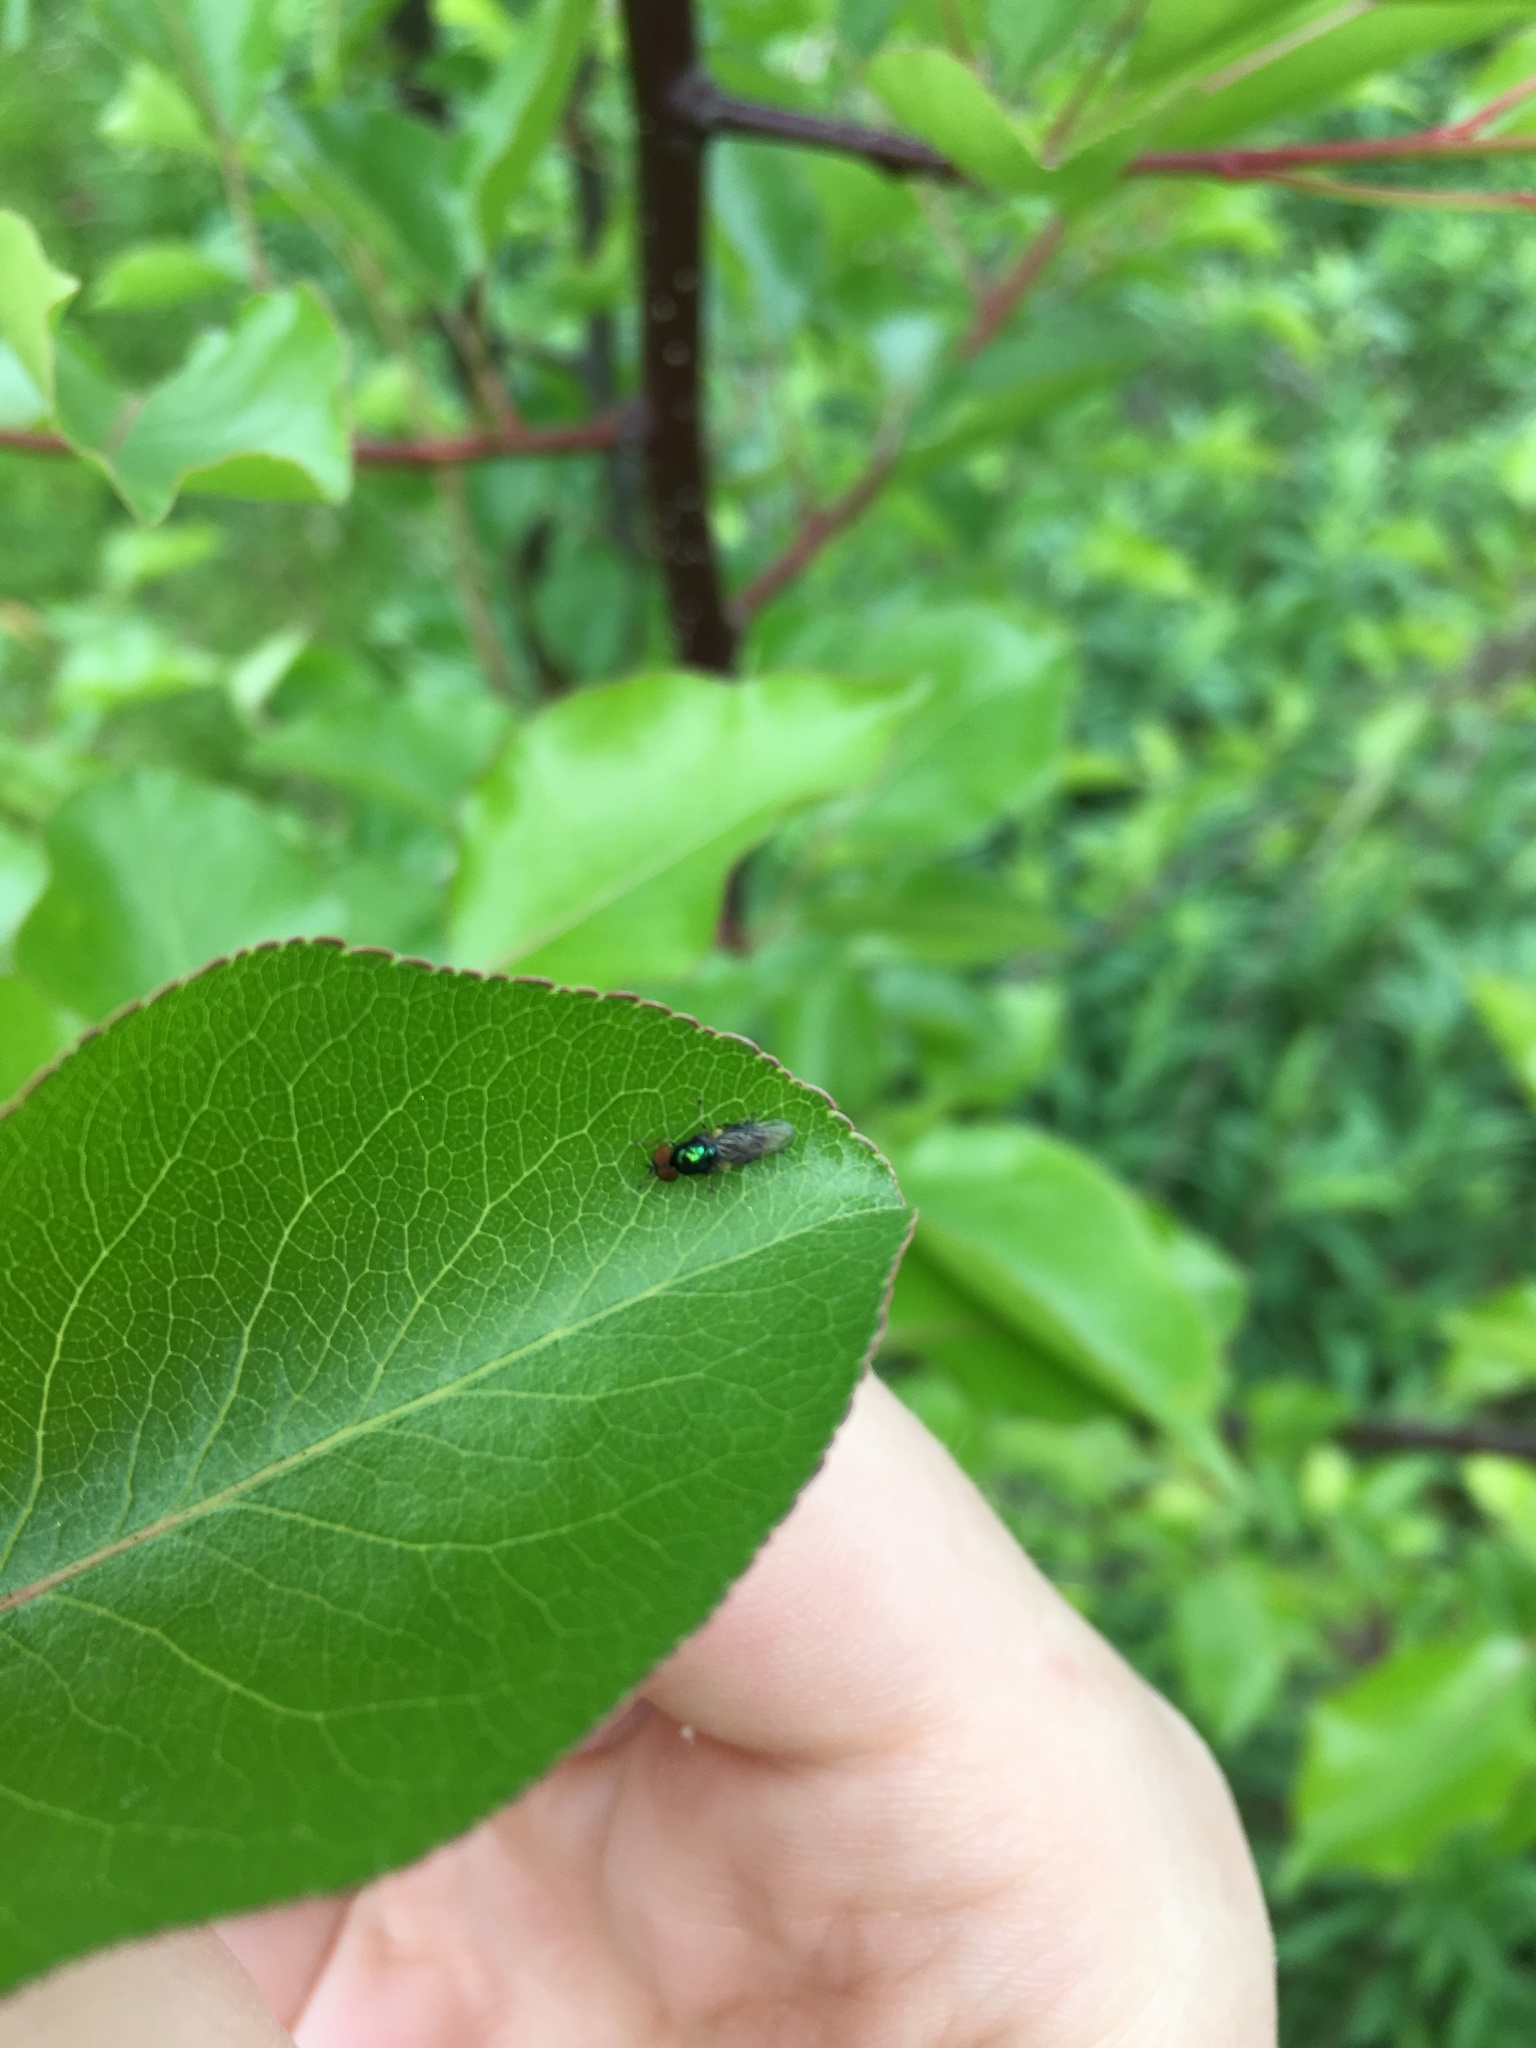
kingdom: Animalia
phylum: Arthropoda
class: Insecta
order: Diptera
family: Stratiomyidae
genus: Microchrysa
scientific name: Microchrysa polita
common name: Black-horned gem
